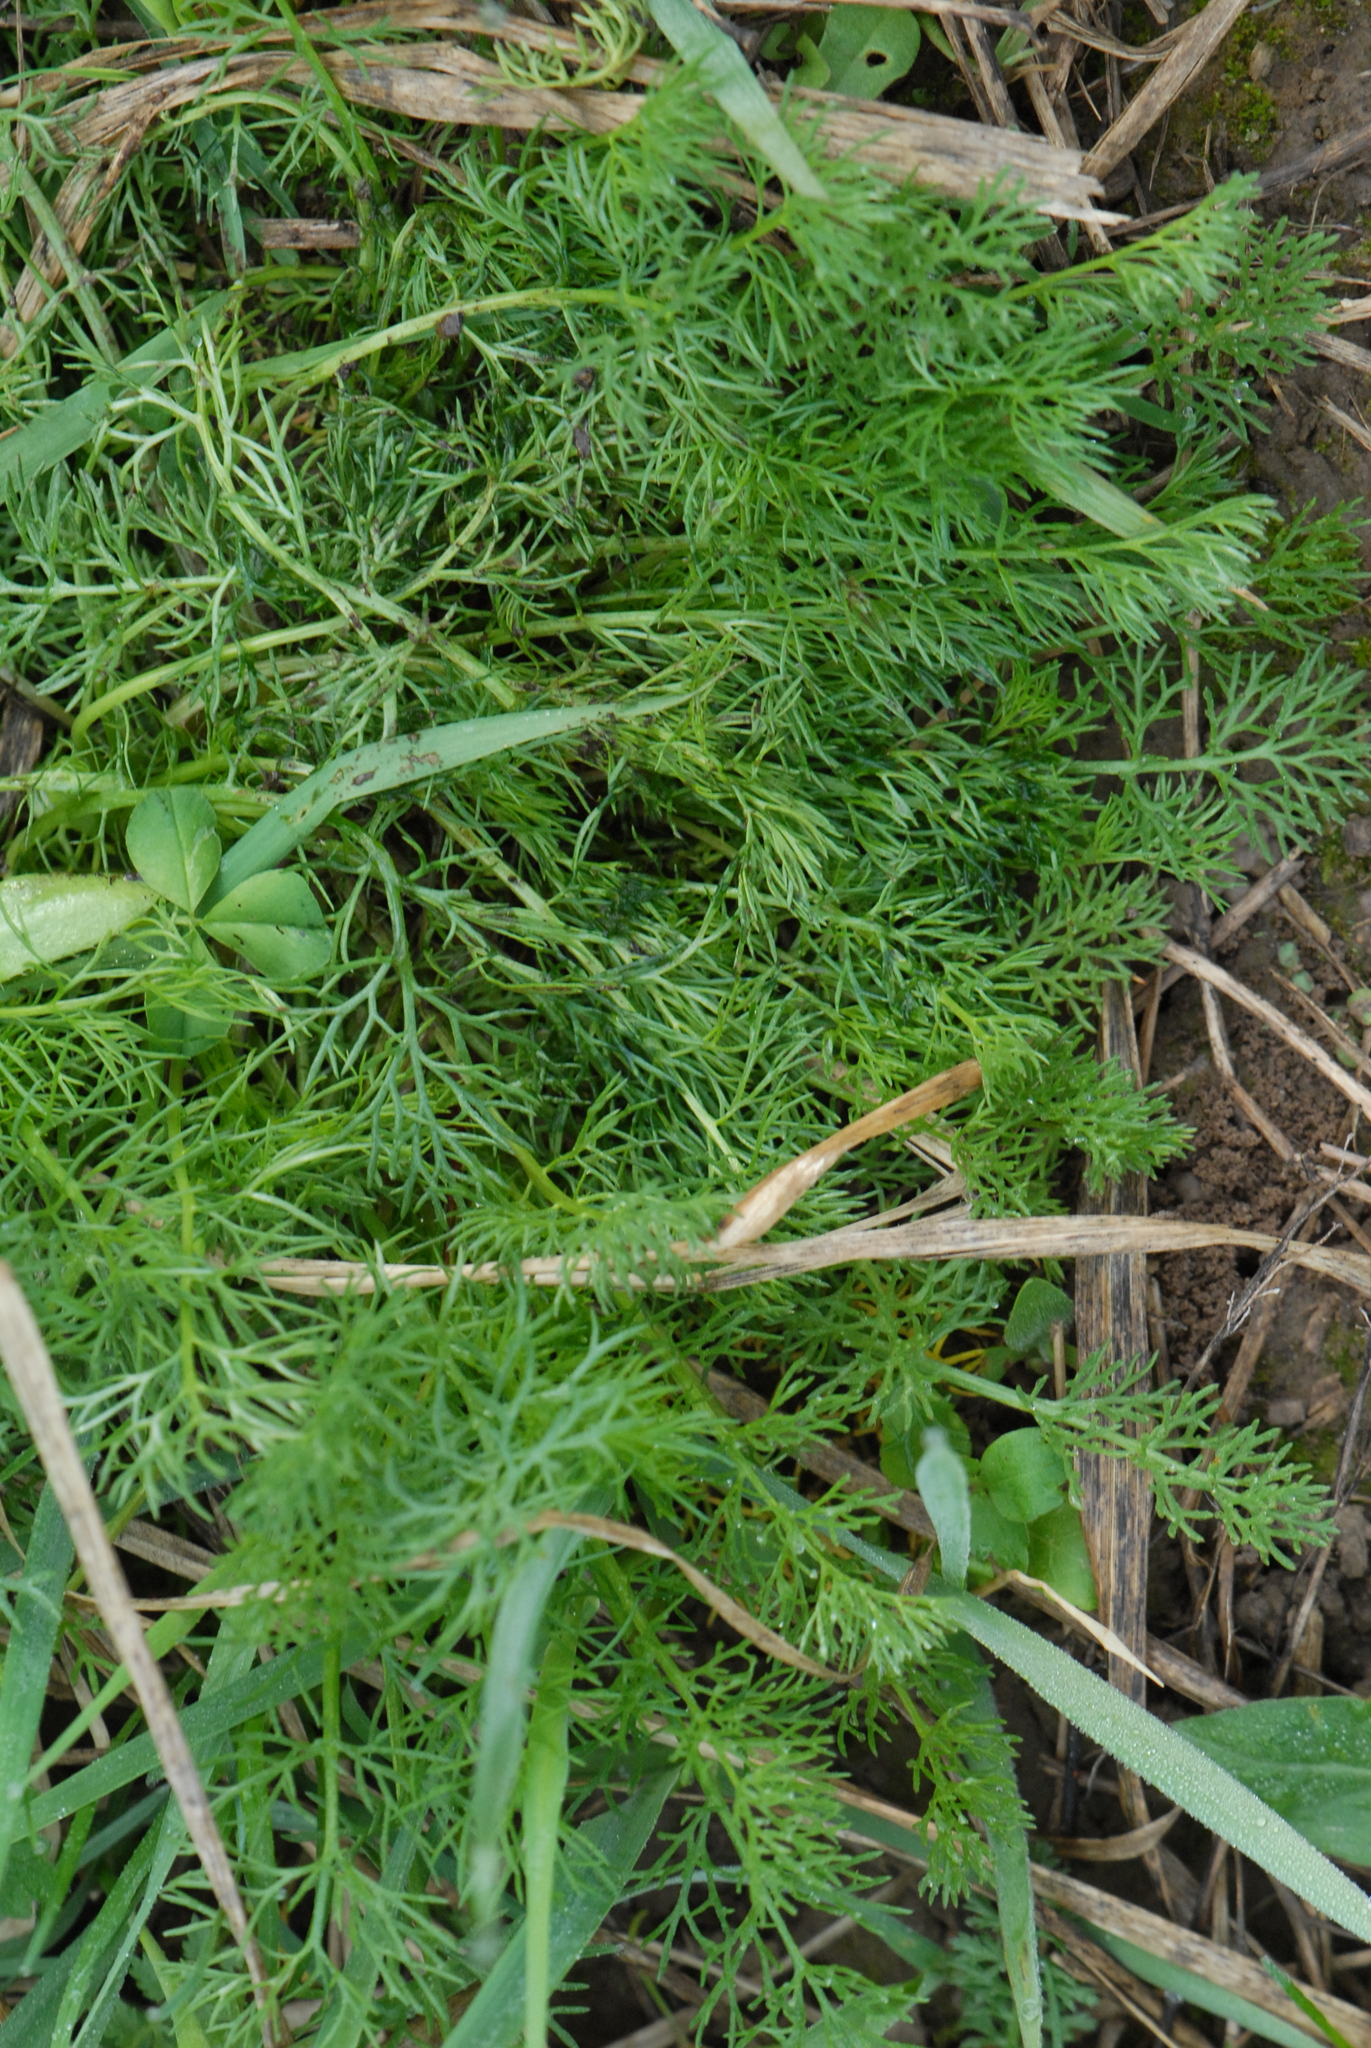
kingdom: Plantae
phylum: Tracheophyta
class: Magnoliopsida
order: Asterales
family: Asteraceae
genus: Tripleurospermum
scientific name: Tripleurospermum inodorum
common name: Scentless mayweed
